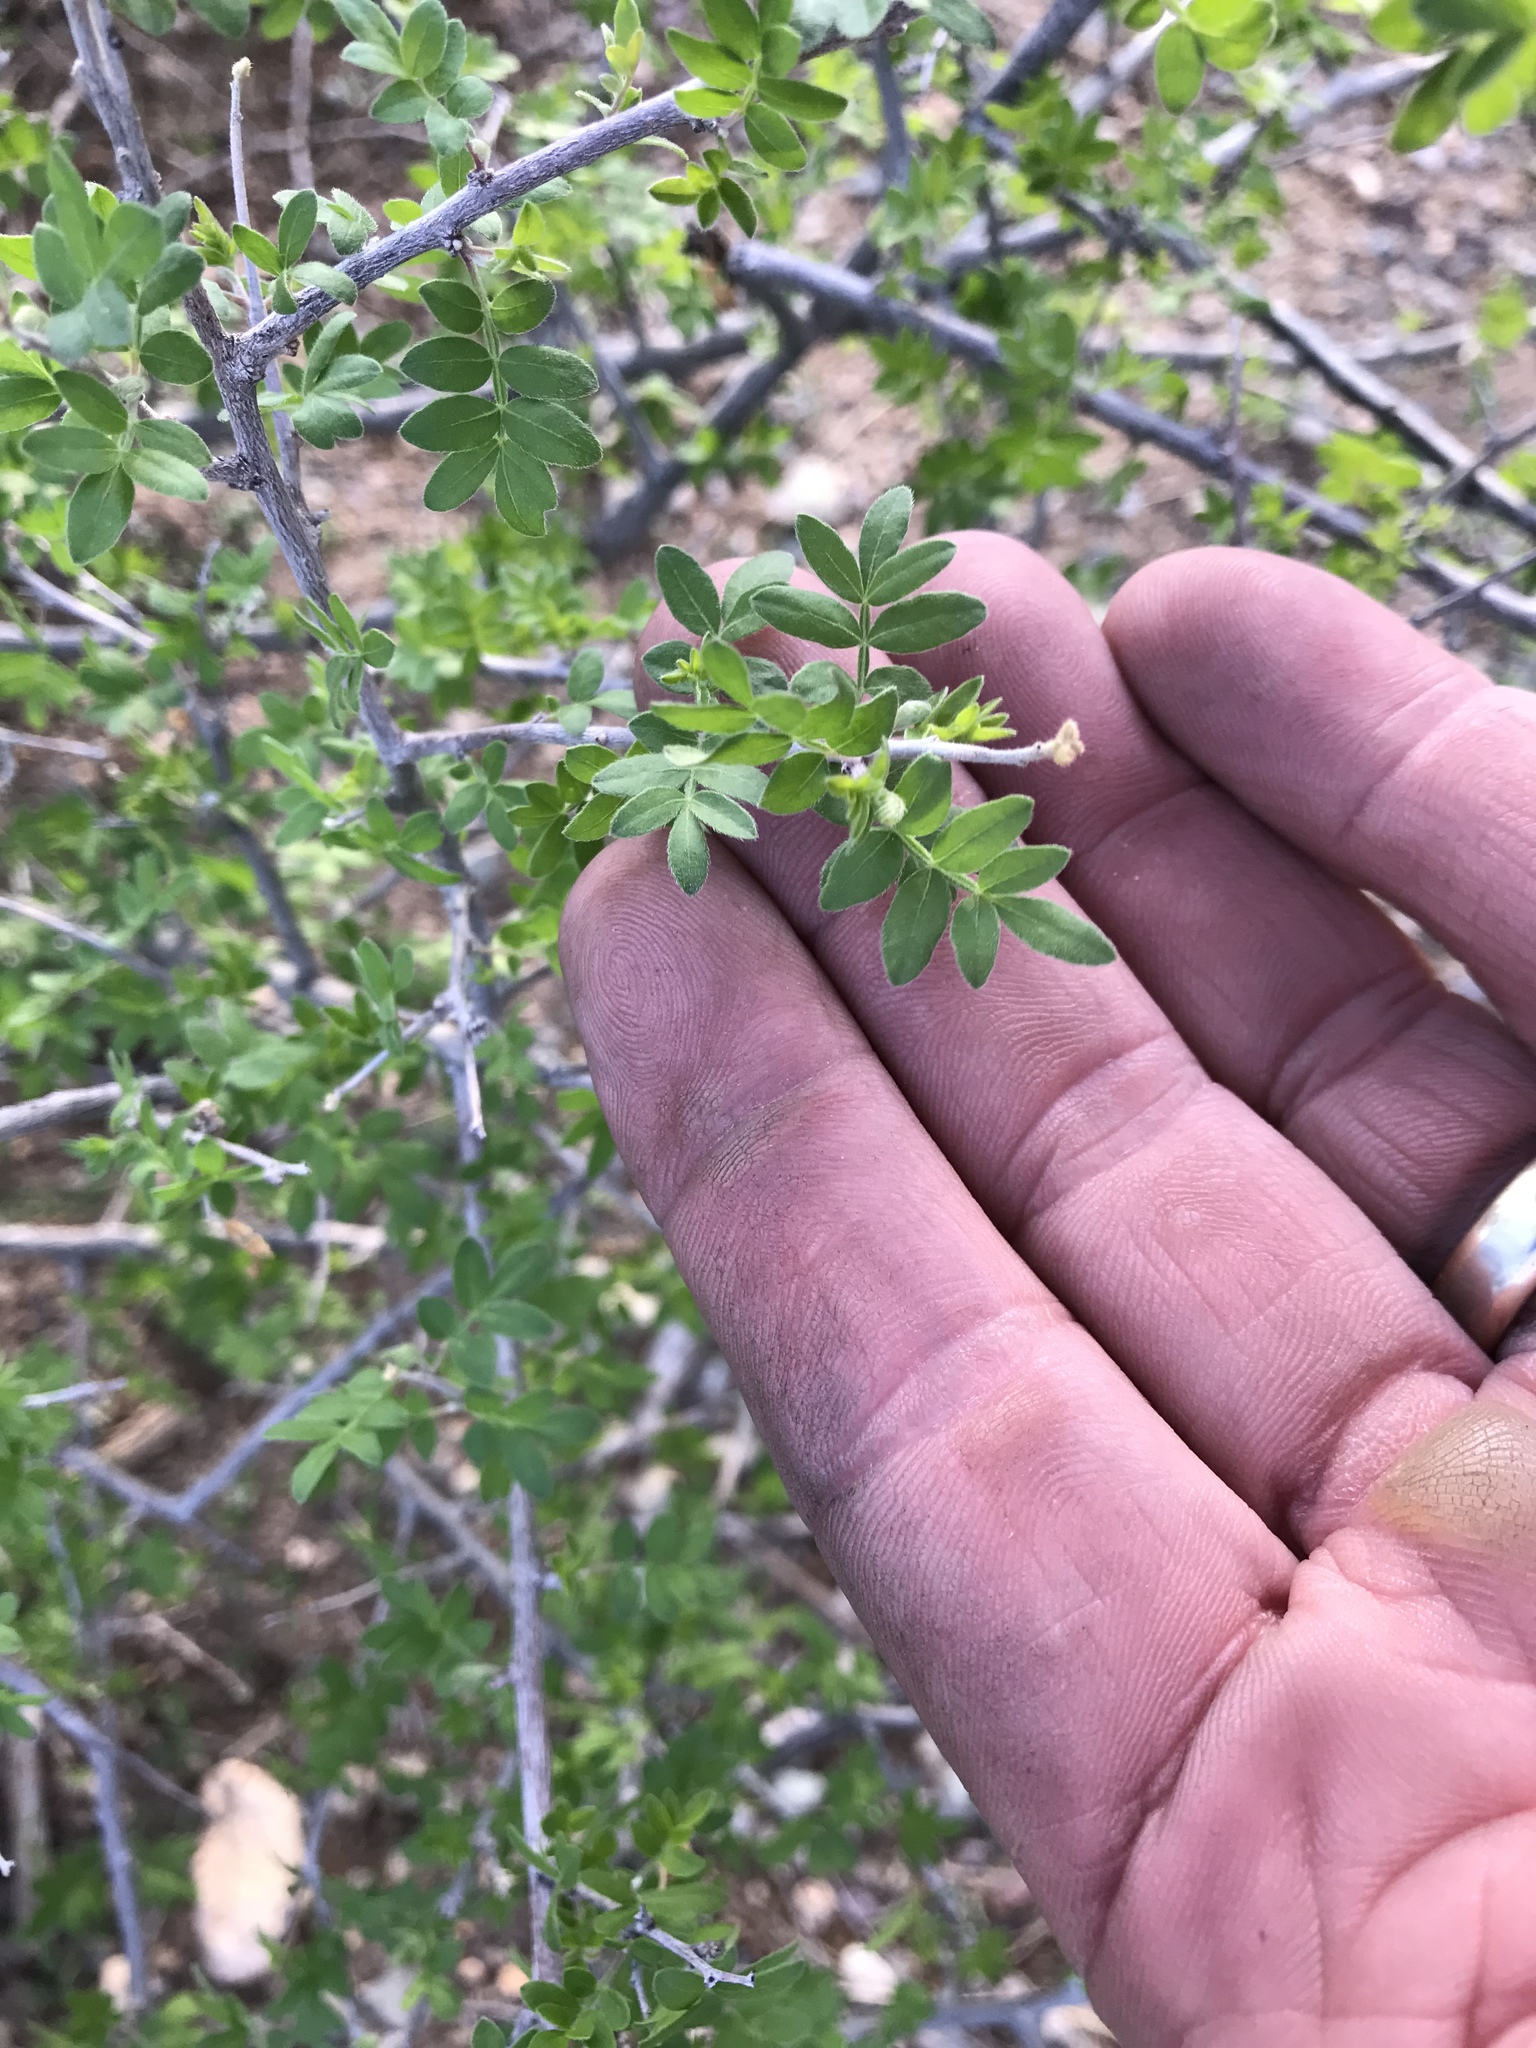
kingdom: Plantae
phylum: Tracheophyta
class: Magnoliopsida
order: Sapindales
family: Anacardiaceae
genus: Rhus
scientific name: Rhus microphylla
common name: Desert sumac
